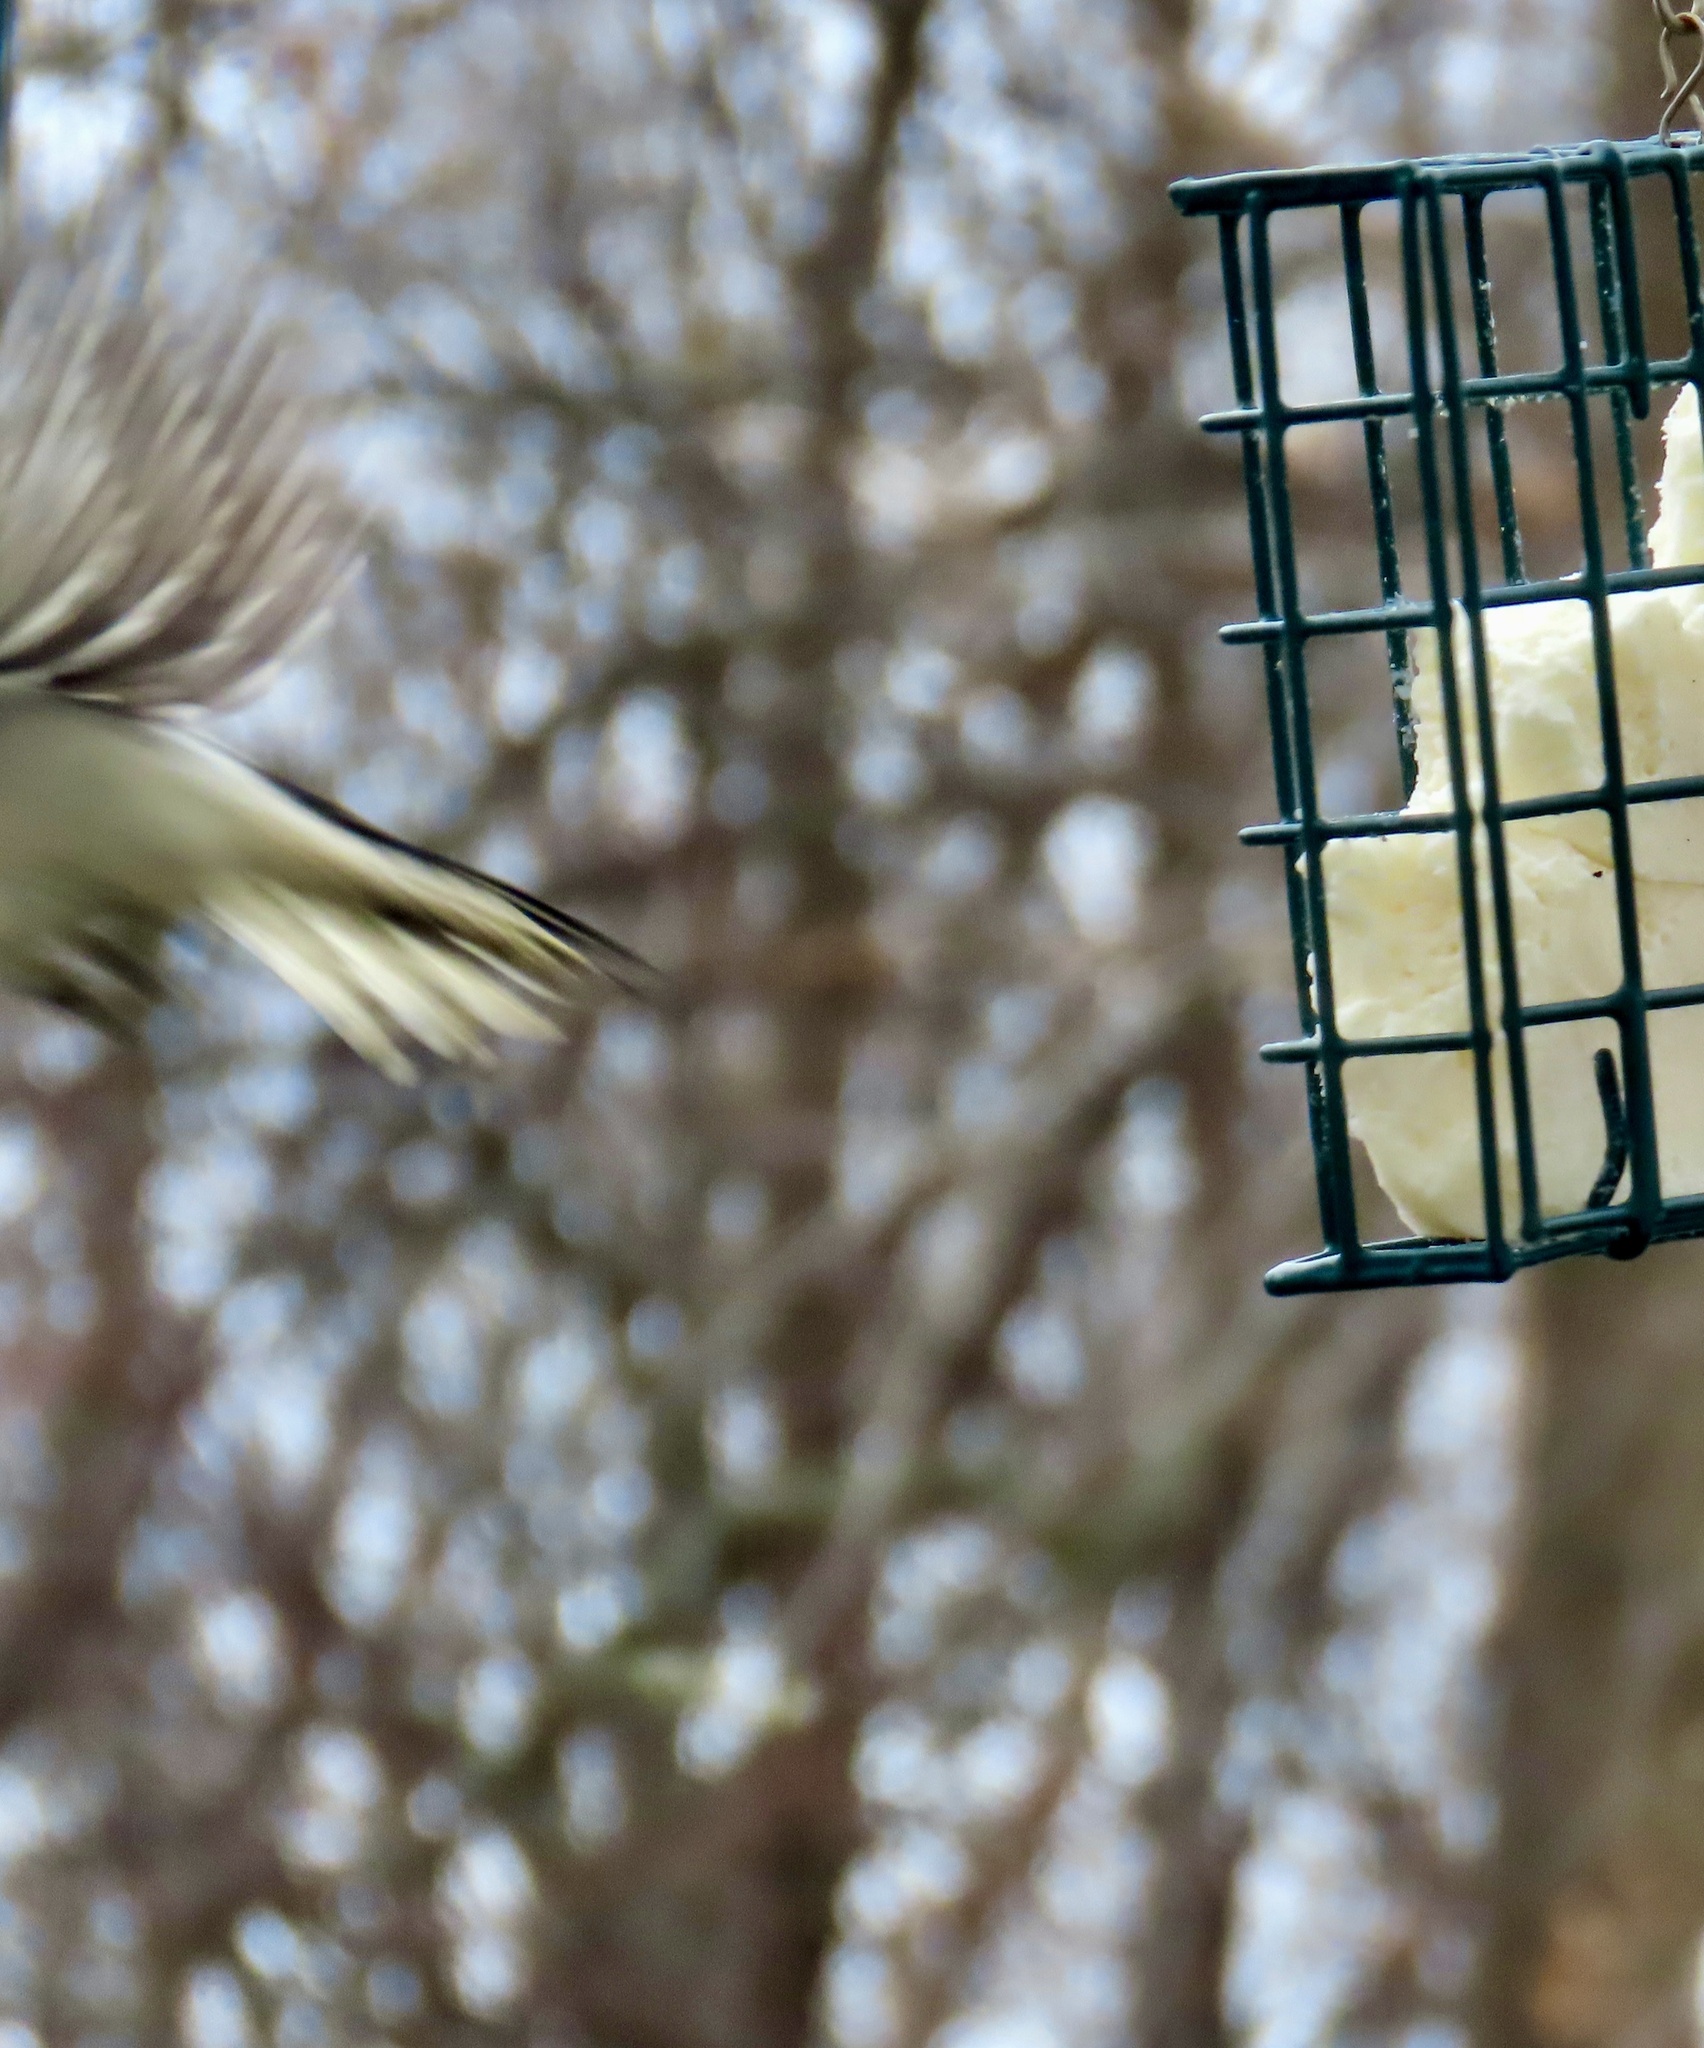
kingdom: Animalia
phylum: Chordata
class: Aves
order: Piciformes
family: Picidae
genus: Dryobates
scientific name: Dryobates pubescens
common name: Downy woodpecker
